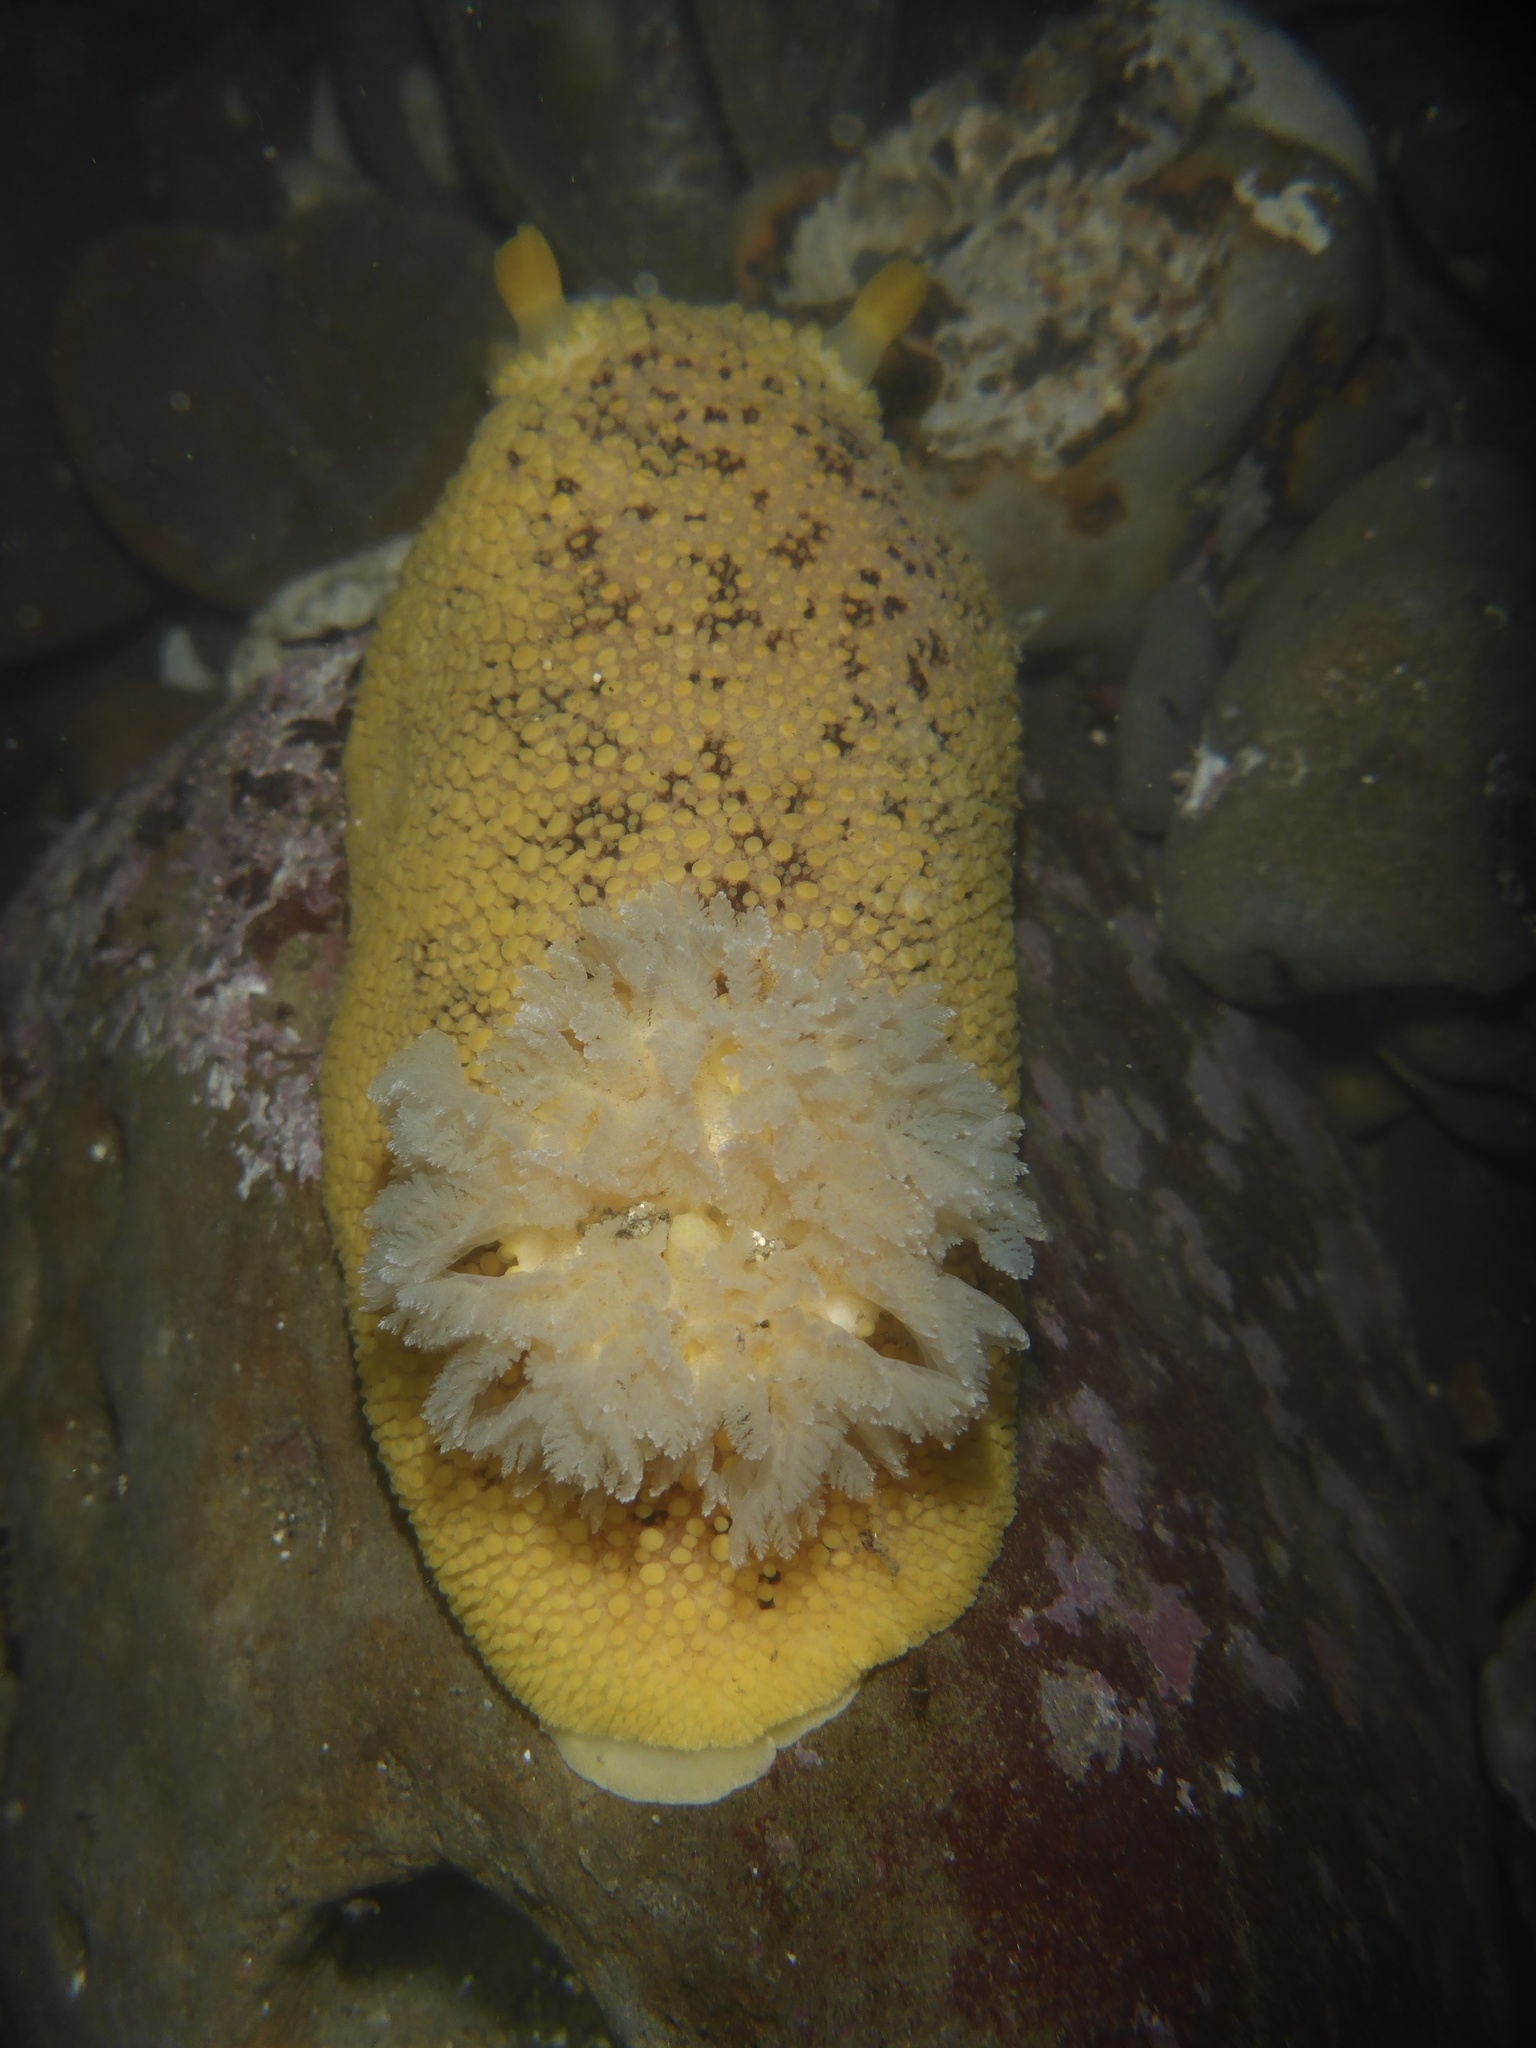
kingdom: Animalia
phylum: Mollusca
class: Gastropoda
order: Nudibranchia
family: Discodorididae
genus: Peltodoris
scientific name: Peltodoris nobilis
